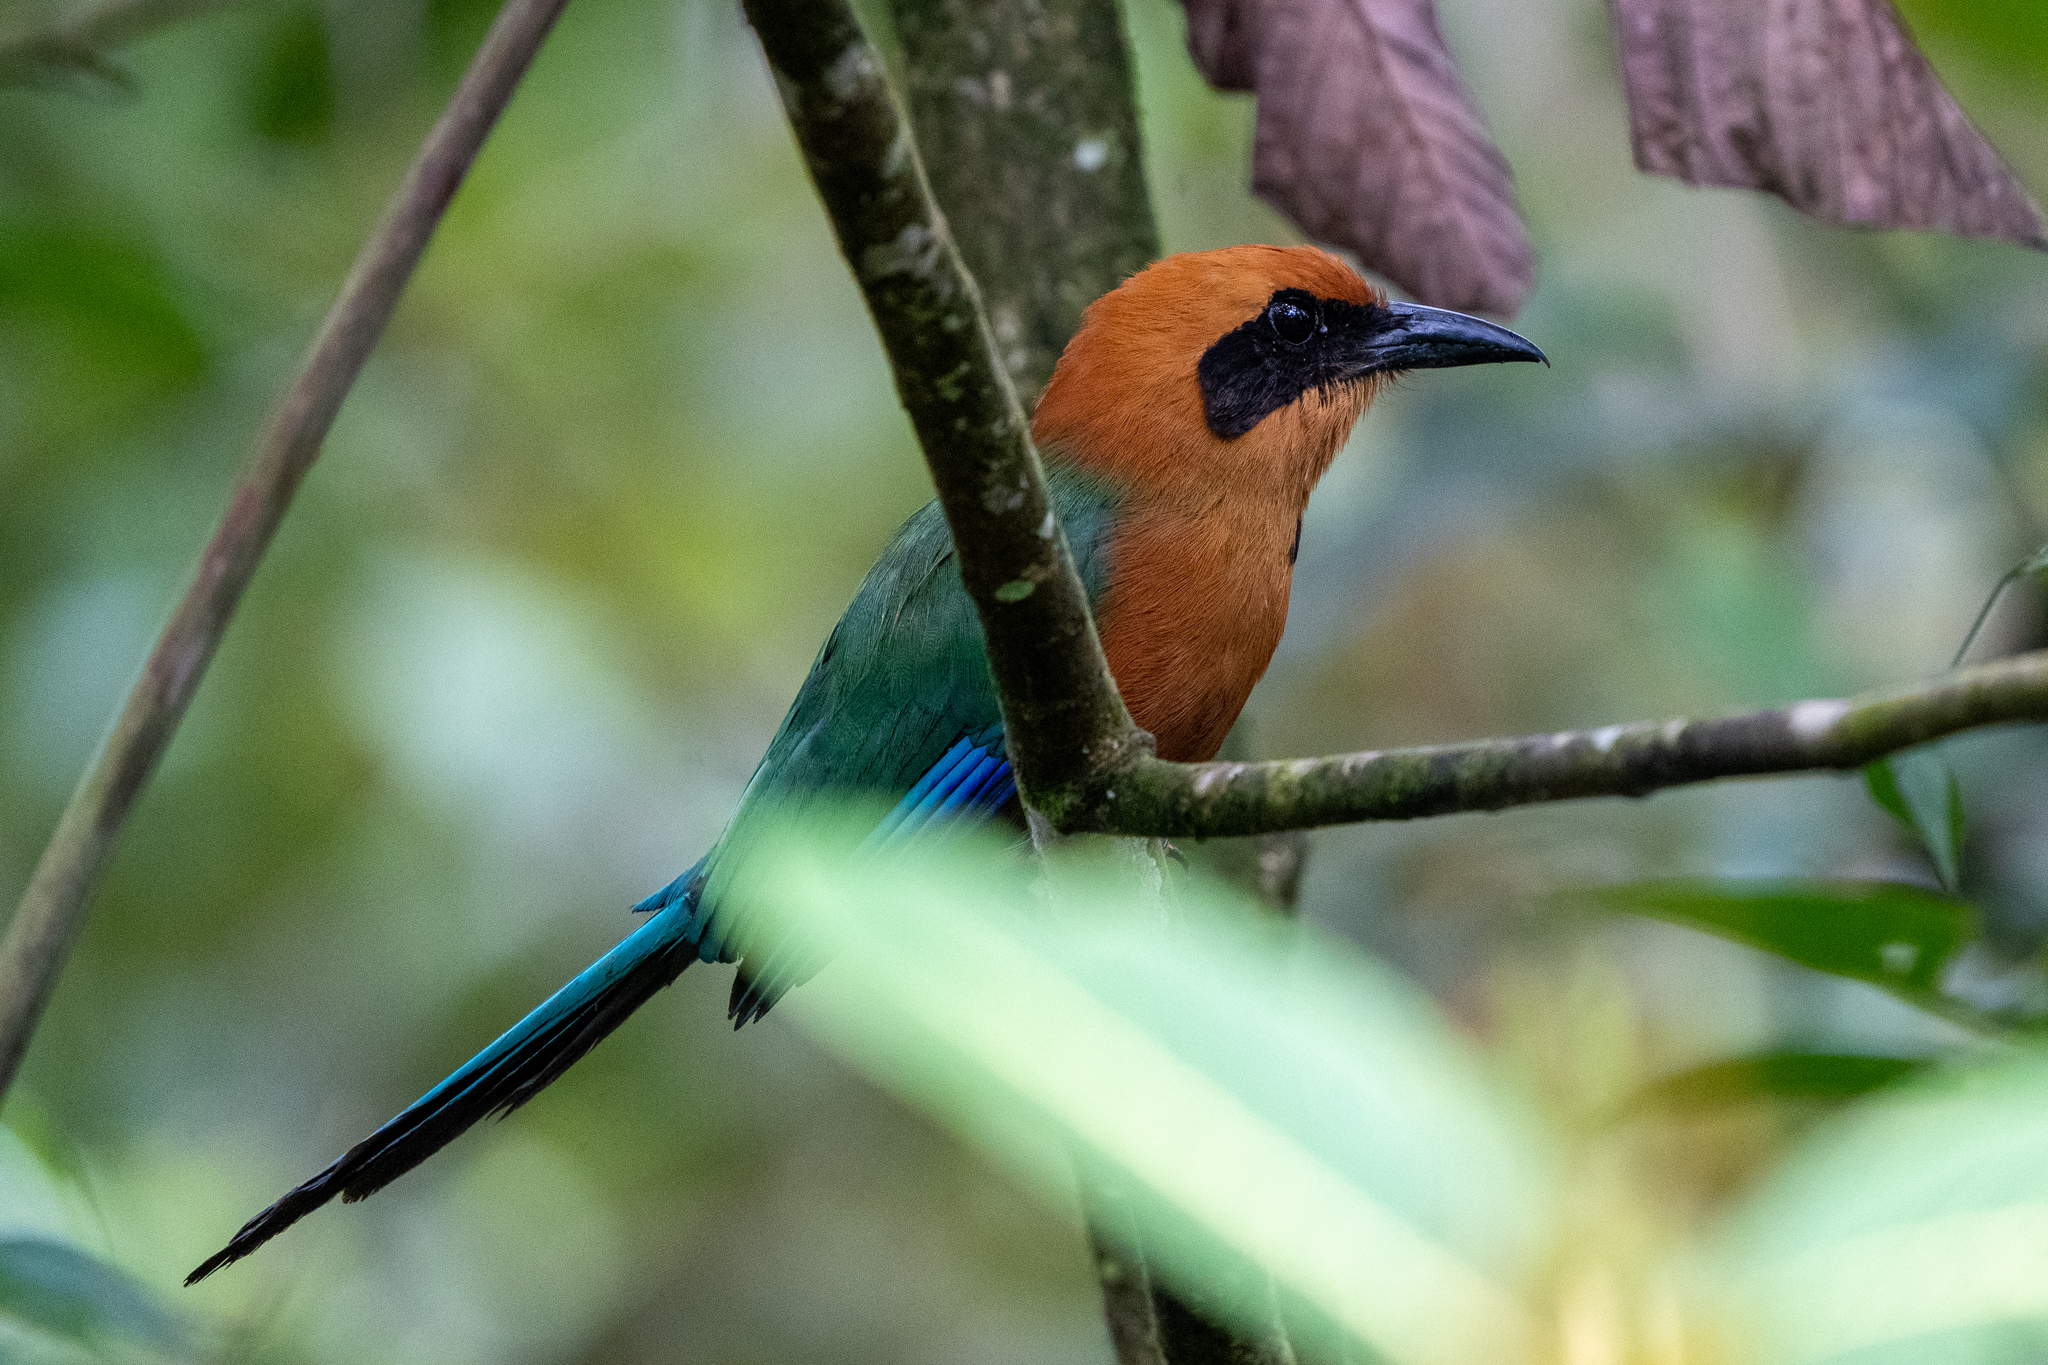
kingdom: Animalia
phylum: Chordata
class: Aves
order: Coraciiformes
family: Momotidae
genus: Baryphthengus
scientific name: Baryphthengus martii
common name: Rufous motmot
